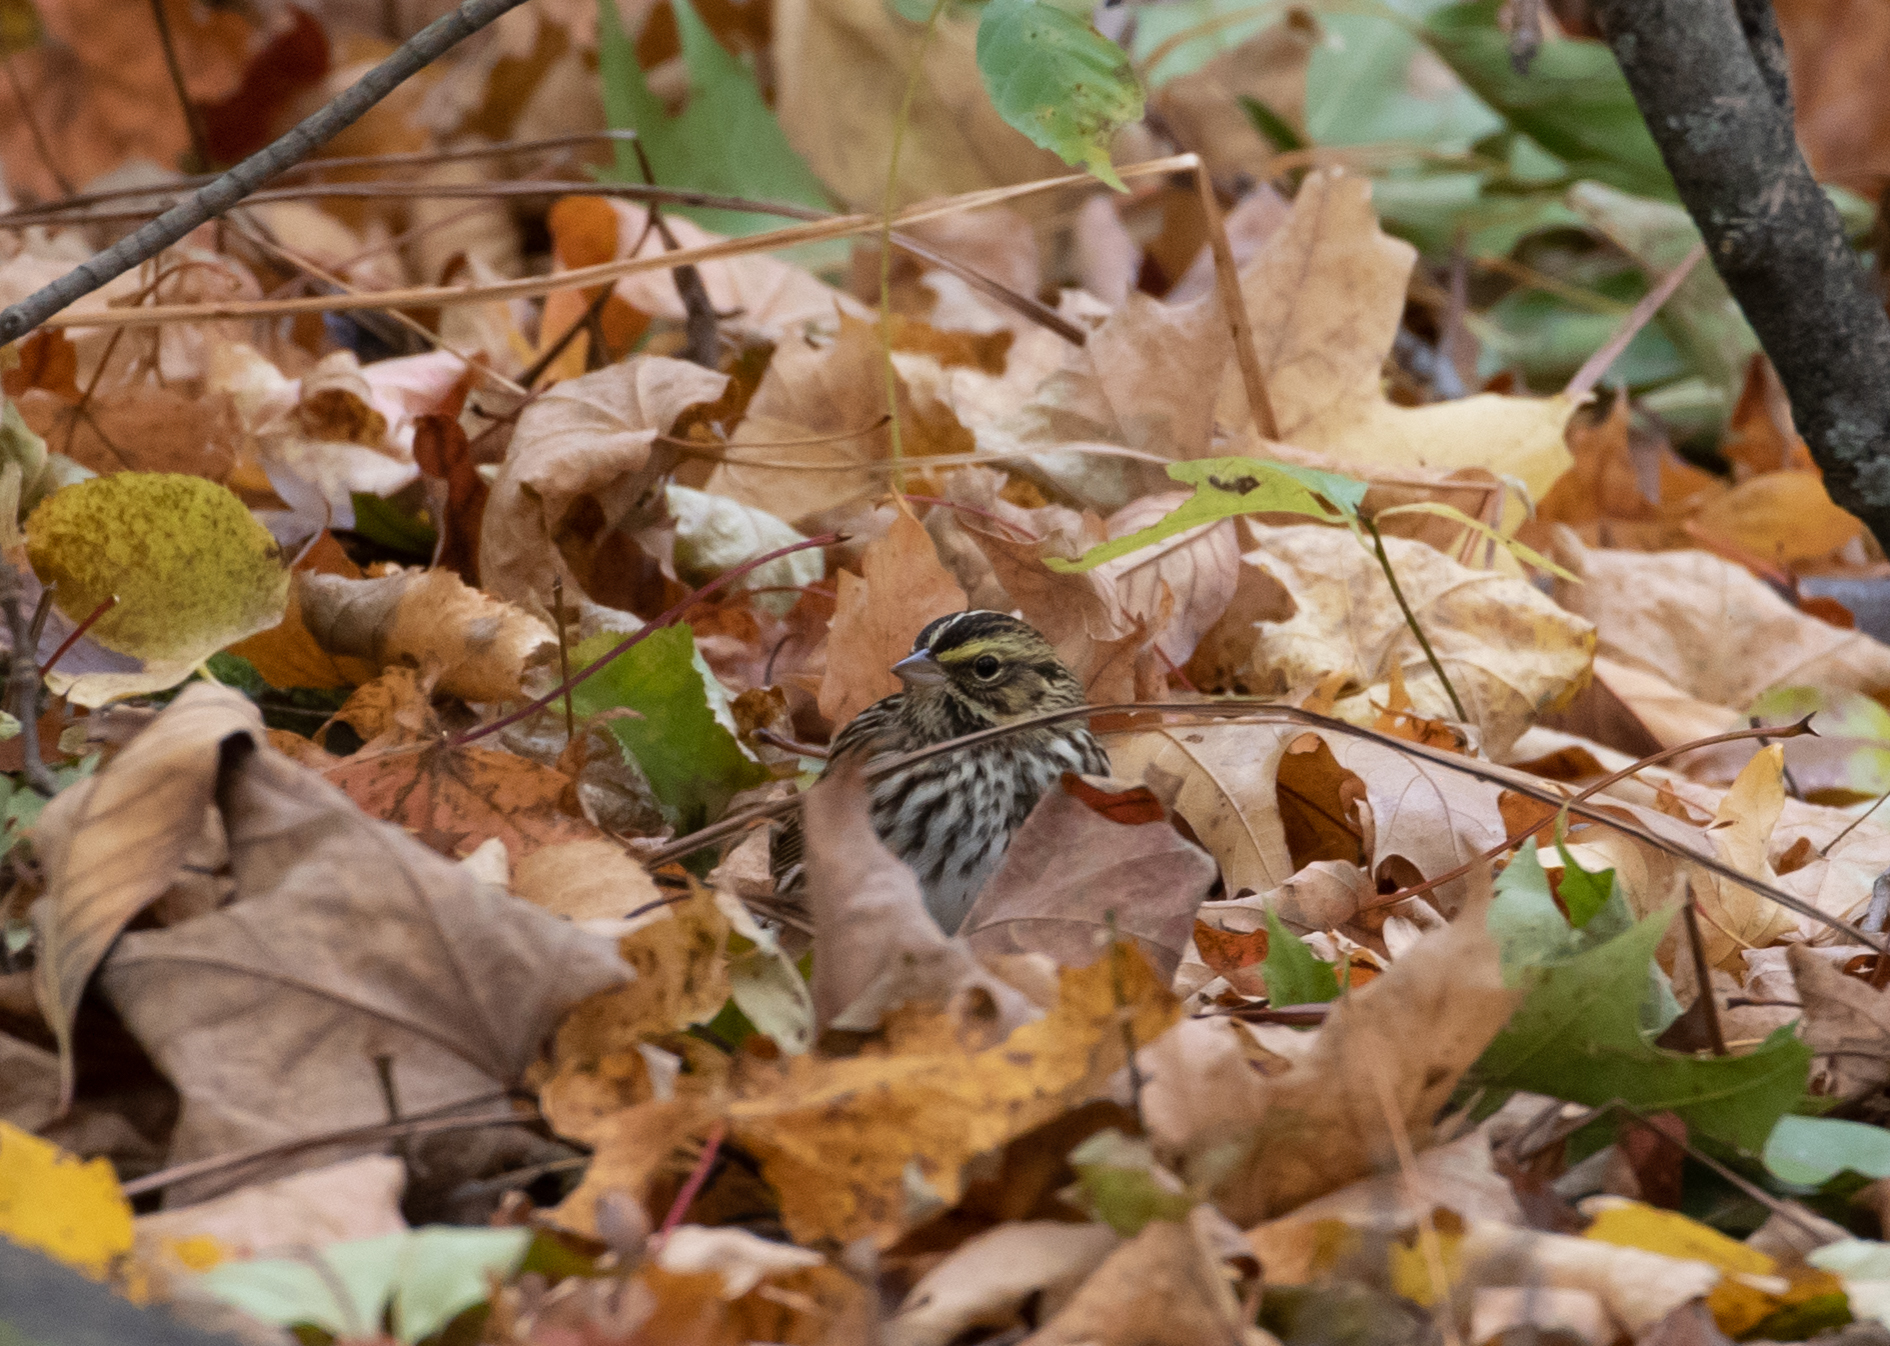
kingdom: Animalia
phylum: Chordata
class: Aves
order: Passeriformes
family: Passerellidae
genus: Passerculus
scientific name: Passerculus sandwichensis
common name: Savannah sparrow
